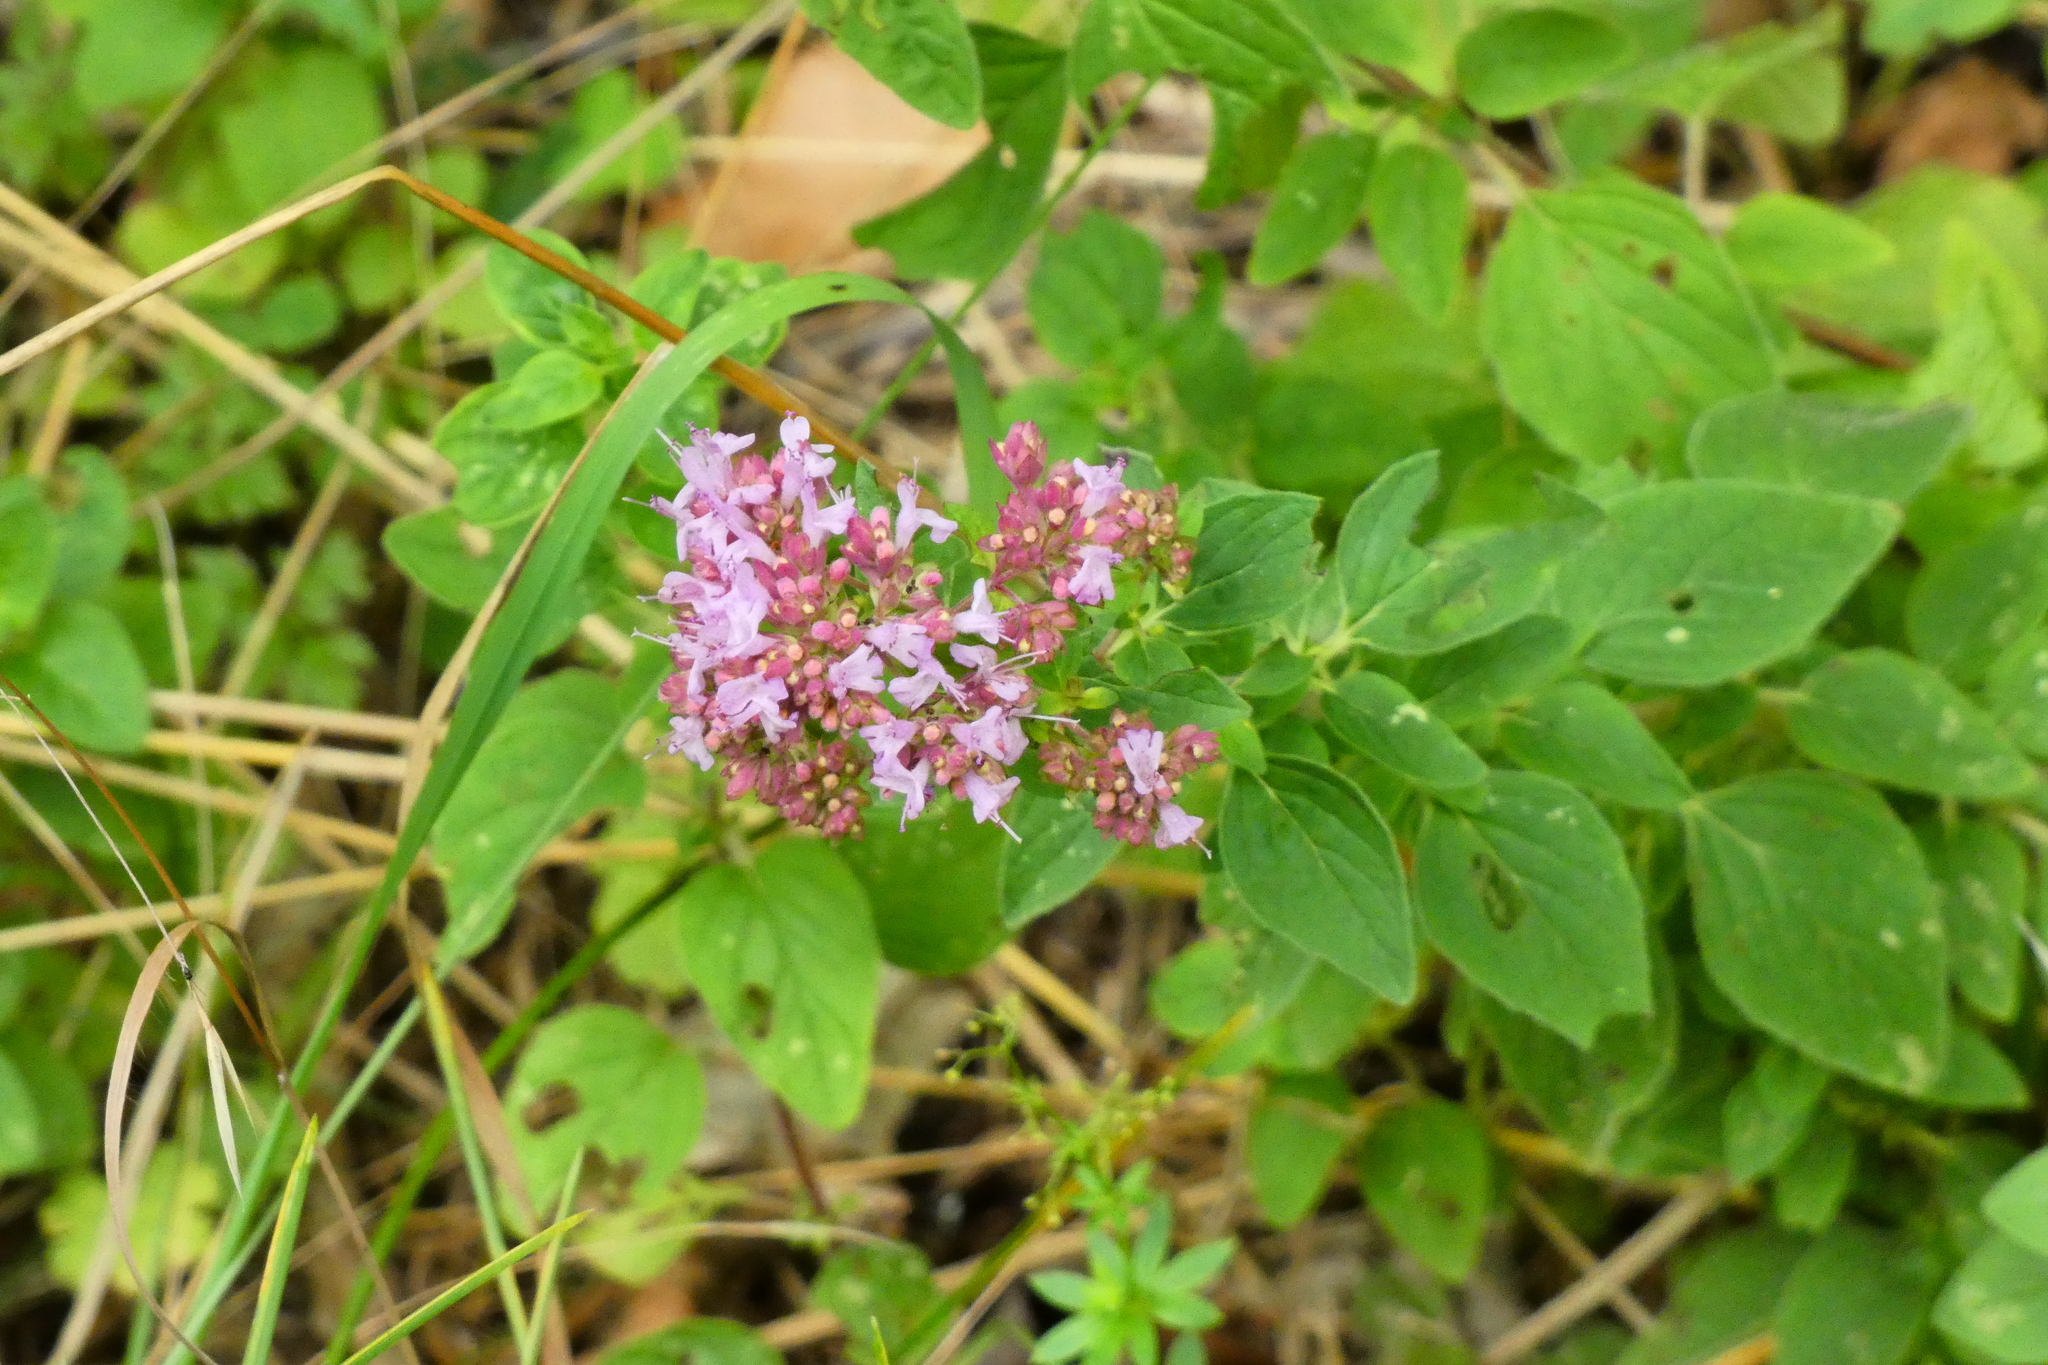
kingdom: Plantae
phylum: Tracheophyta
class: Magnoliopsida
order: Lamiales
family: Lamiaceae
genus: Origanum
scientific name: Origanum vulgare
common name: Wild marjoram
